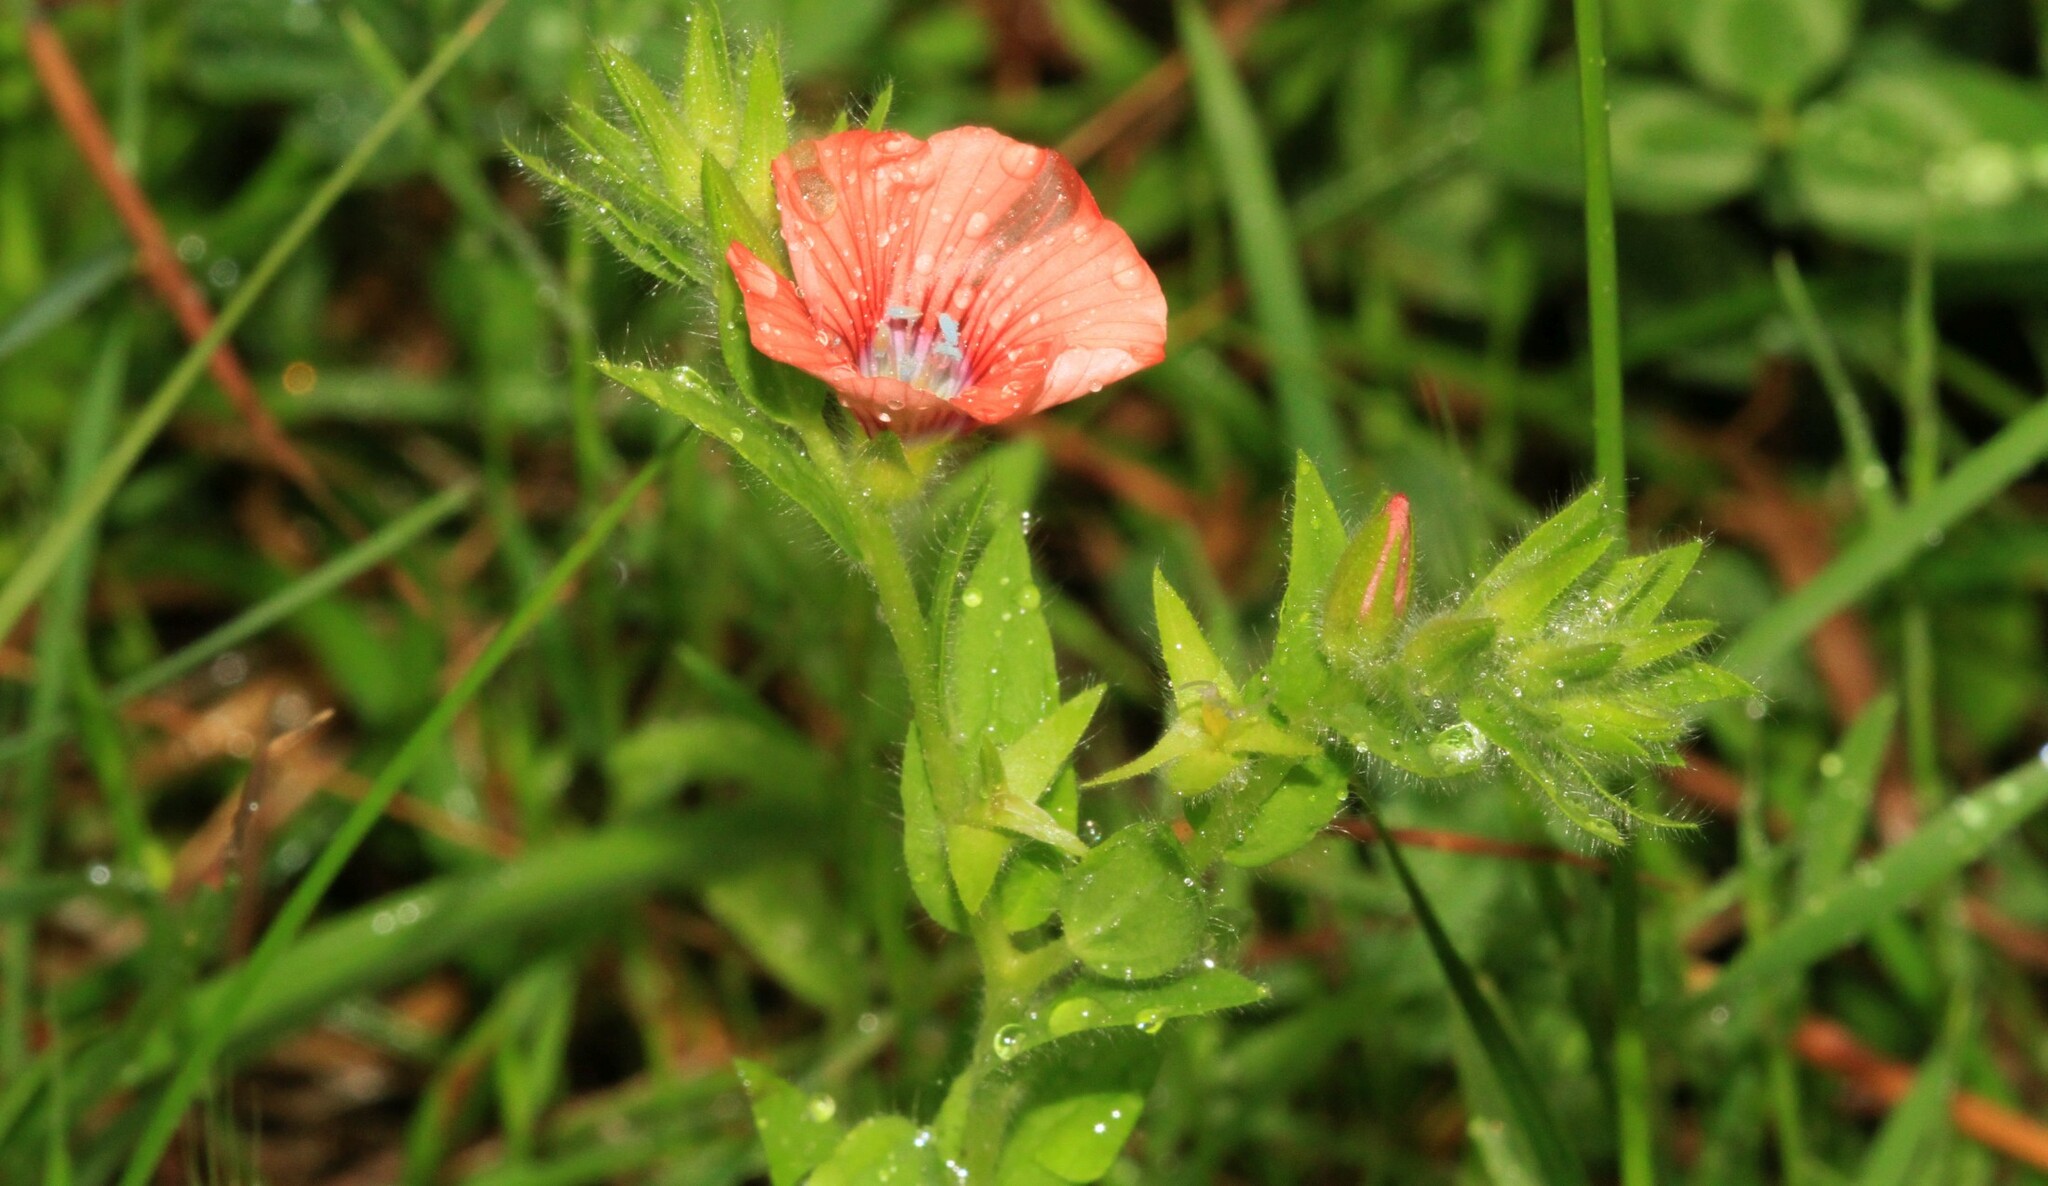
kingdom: Plantae
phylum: Tracheophyta
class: Magnoliopsida
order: Malpighiales
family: Linaceae
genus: Linum
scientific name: Linum pubescens
